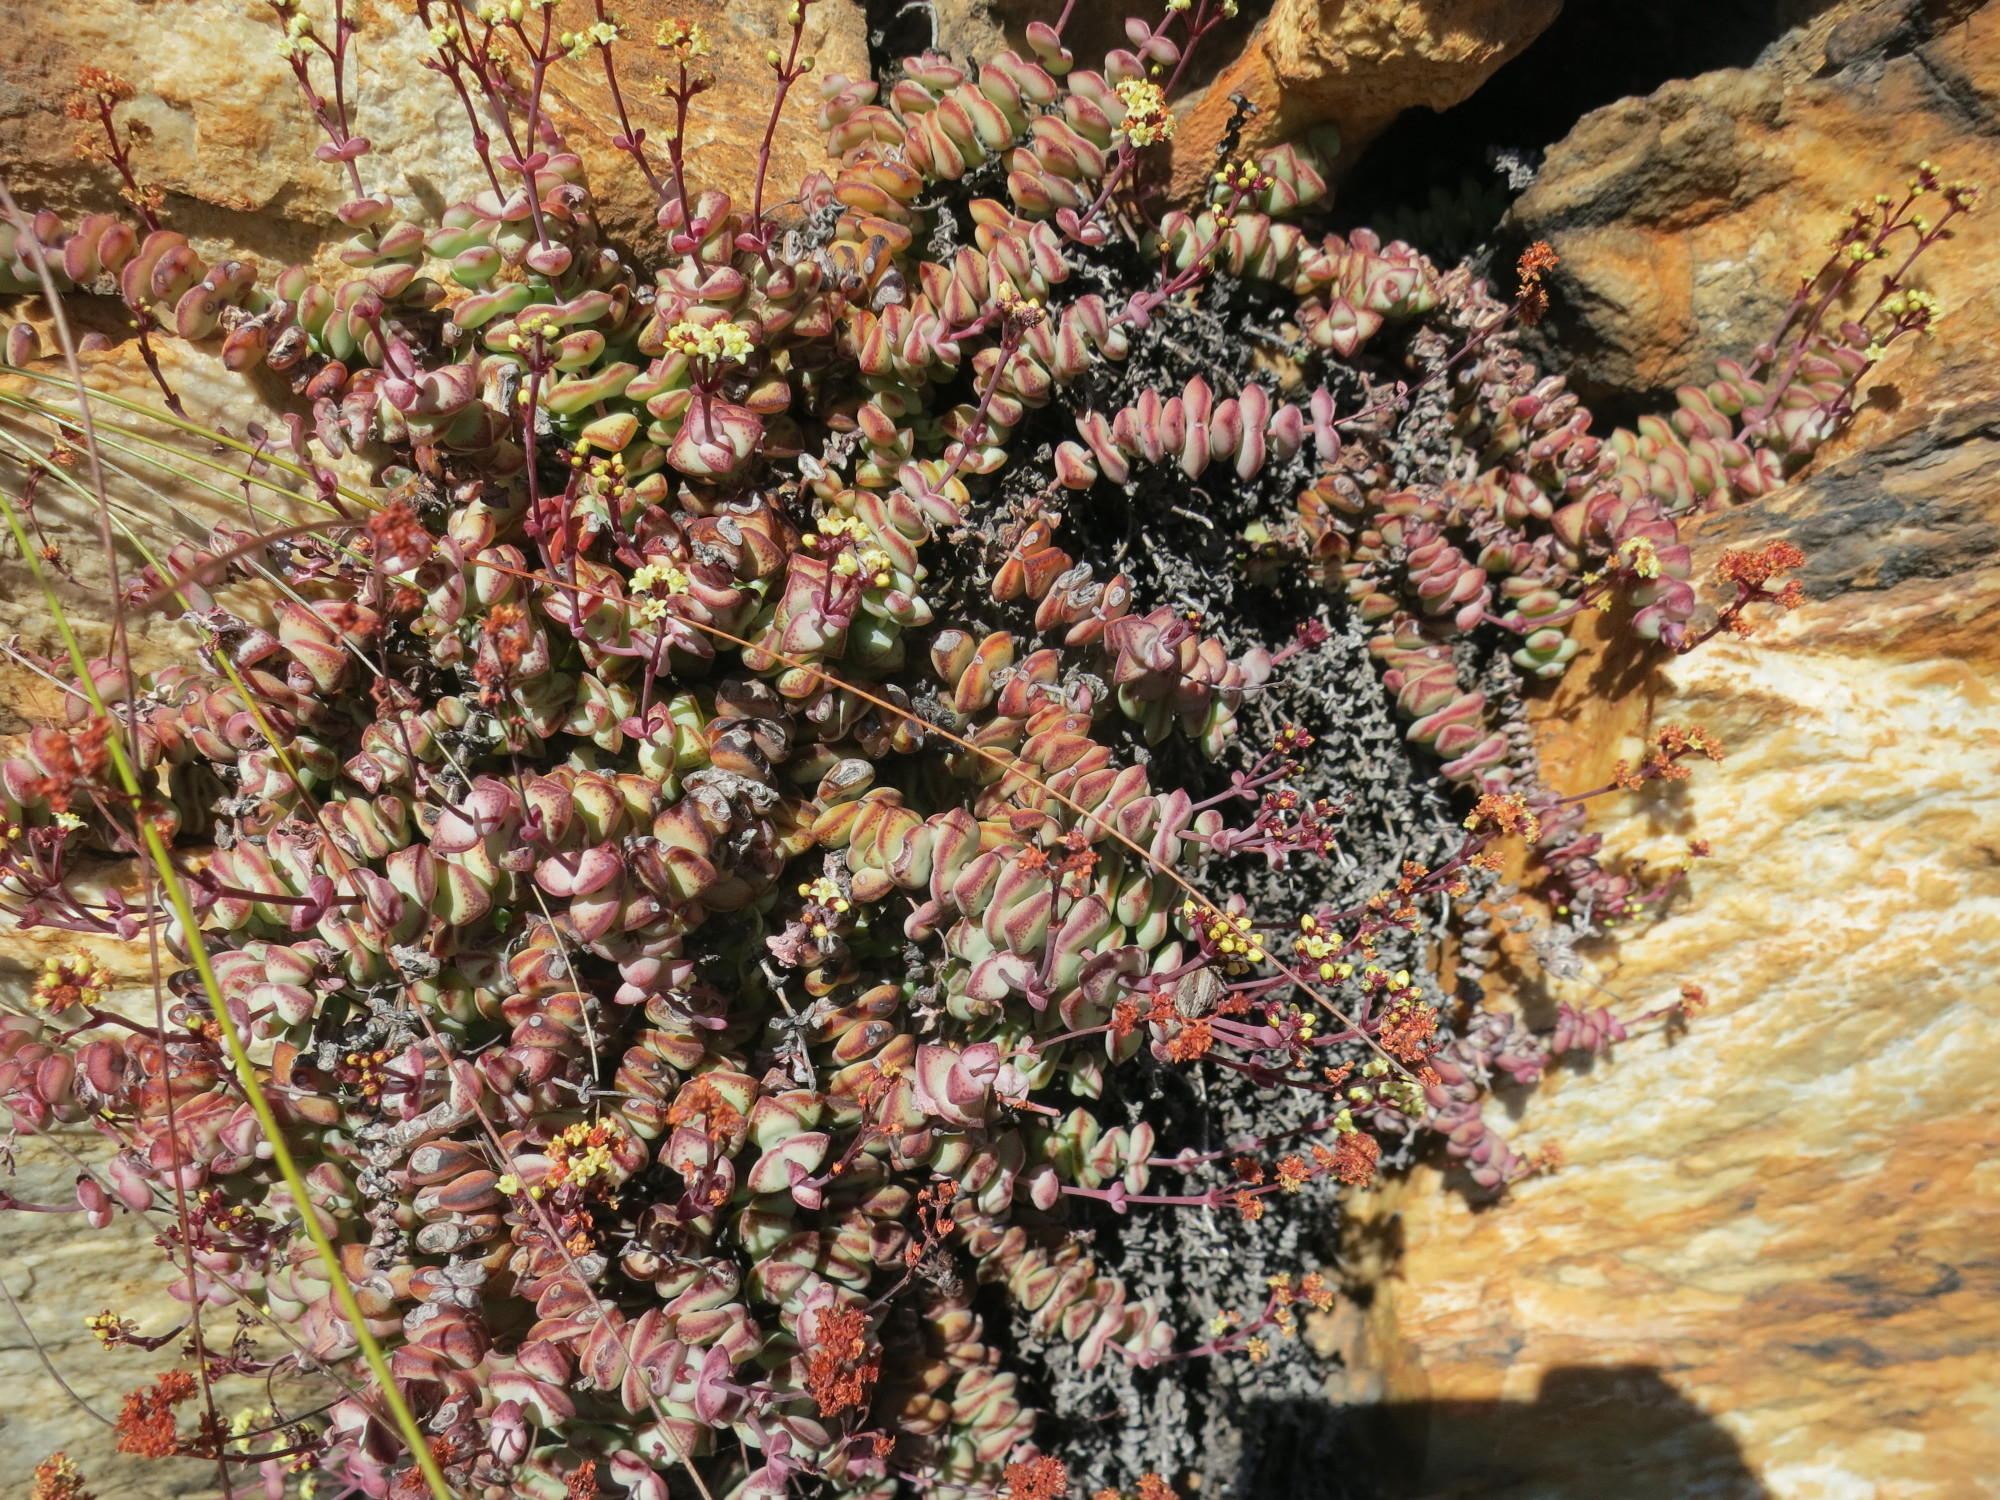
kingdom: Plantae
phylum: Tracheophyta
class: Magnoliopsida
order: Saxifragales
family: Crassulaceae
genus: Crassula
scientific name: Crassula perforata
